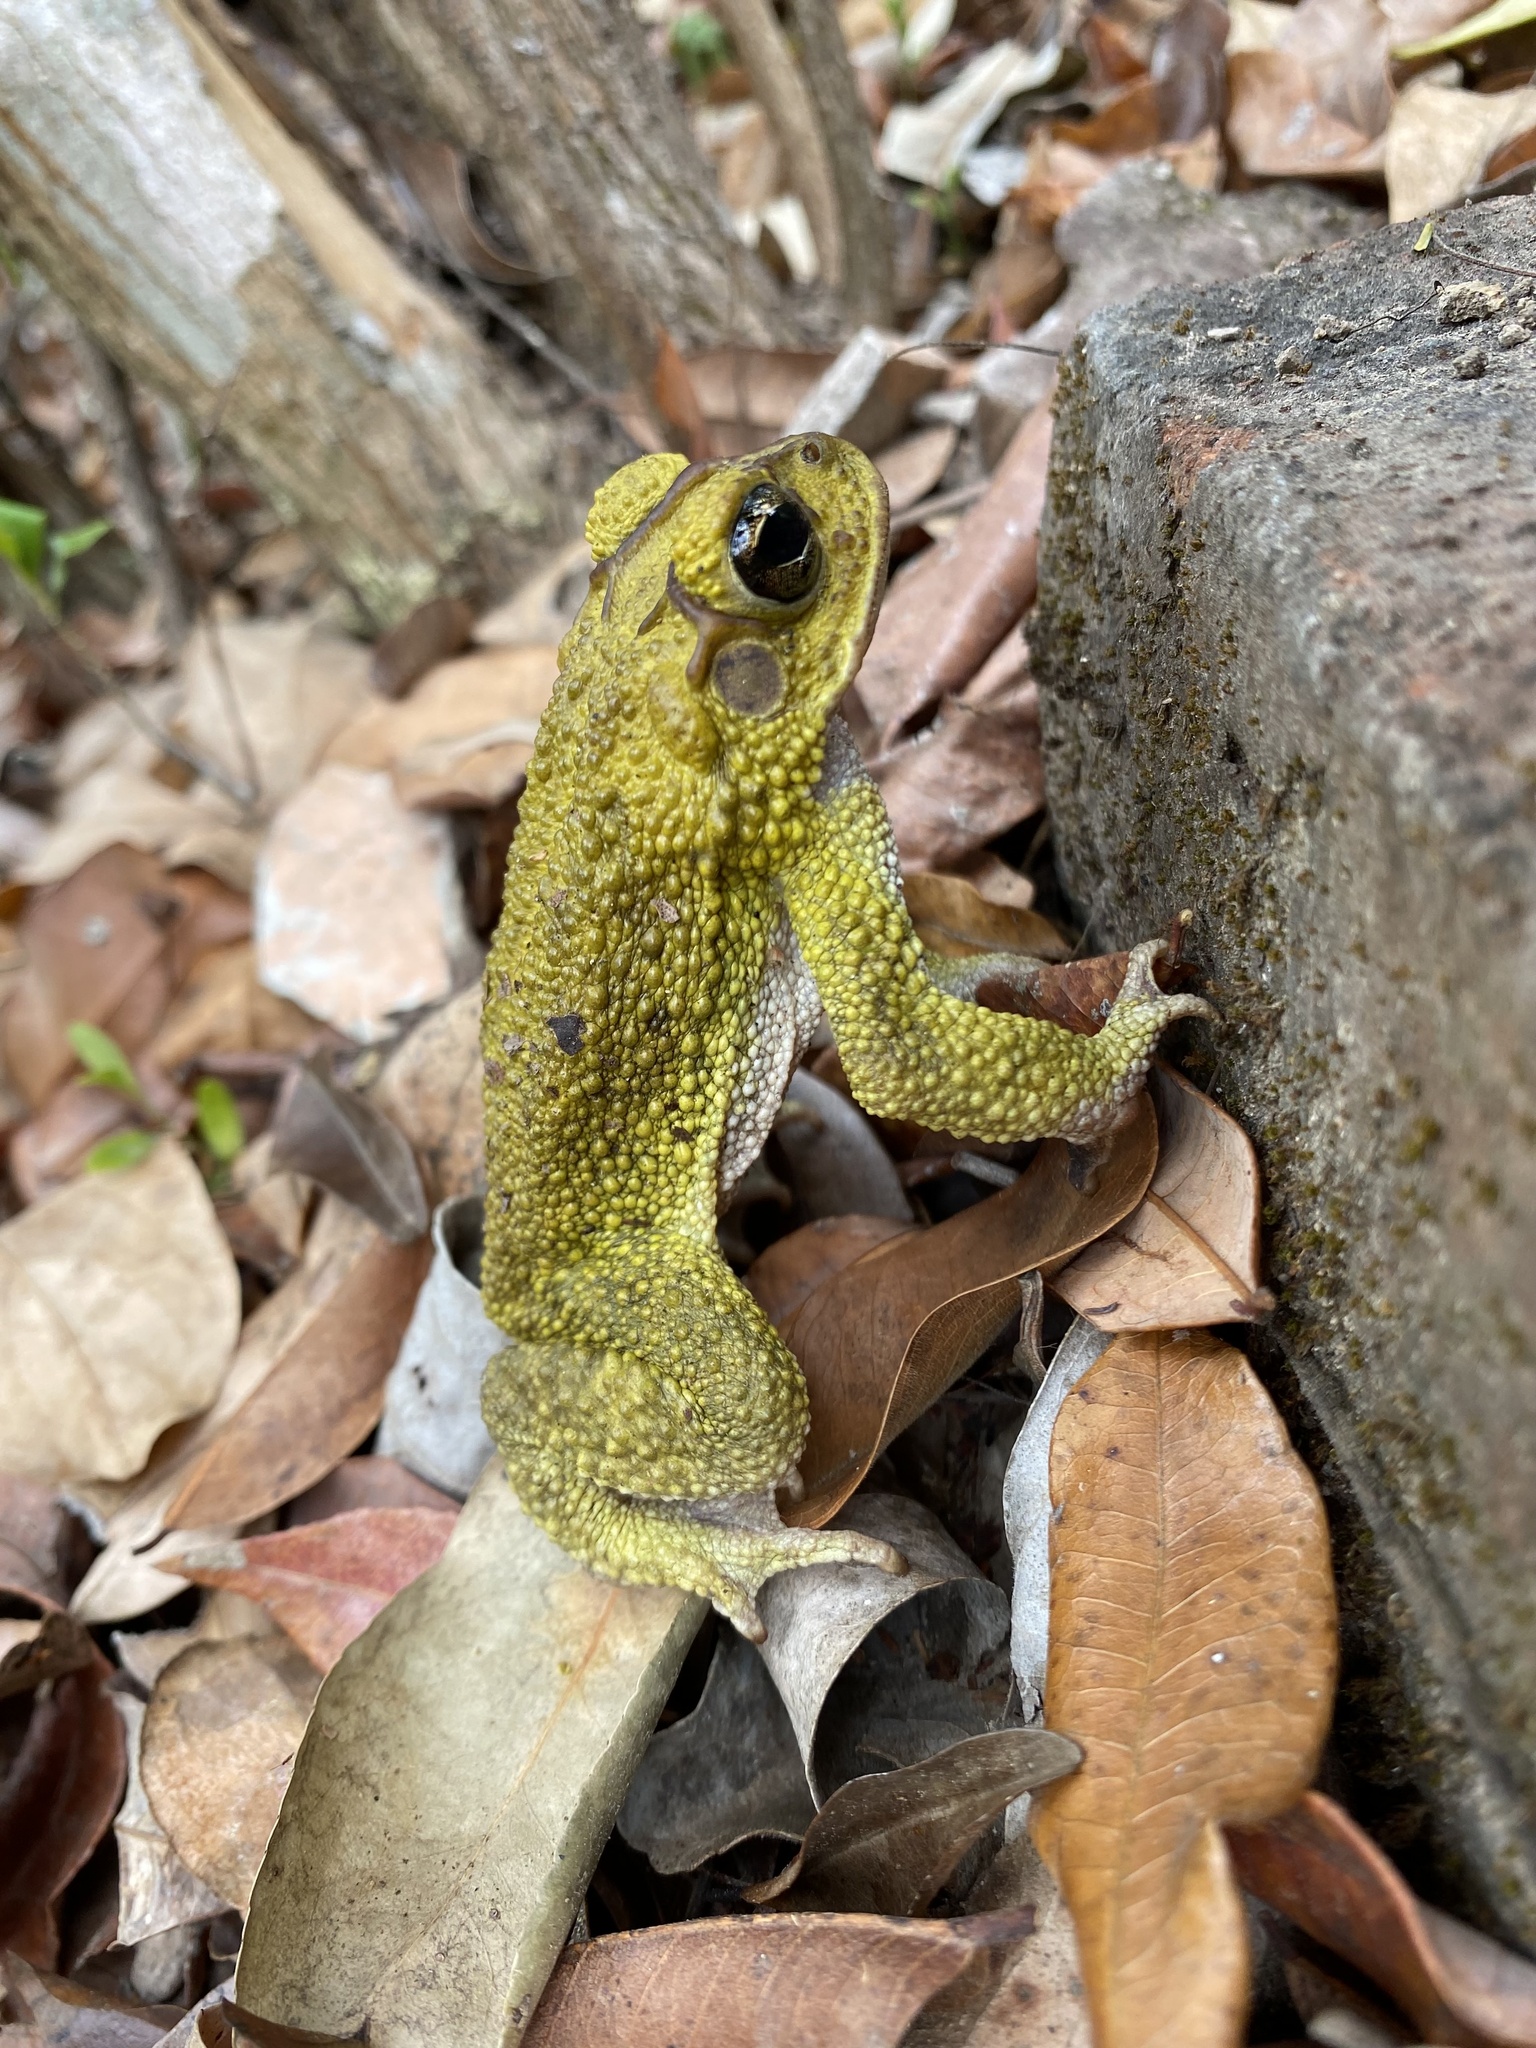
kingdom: Animalia
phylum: Chordata
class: Amphibia
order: Anura
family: Bufonidae
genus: Incilius
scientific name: Incilius luetkenii
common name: Yellow toad
